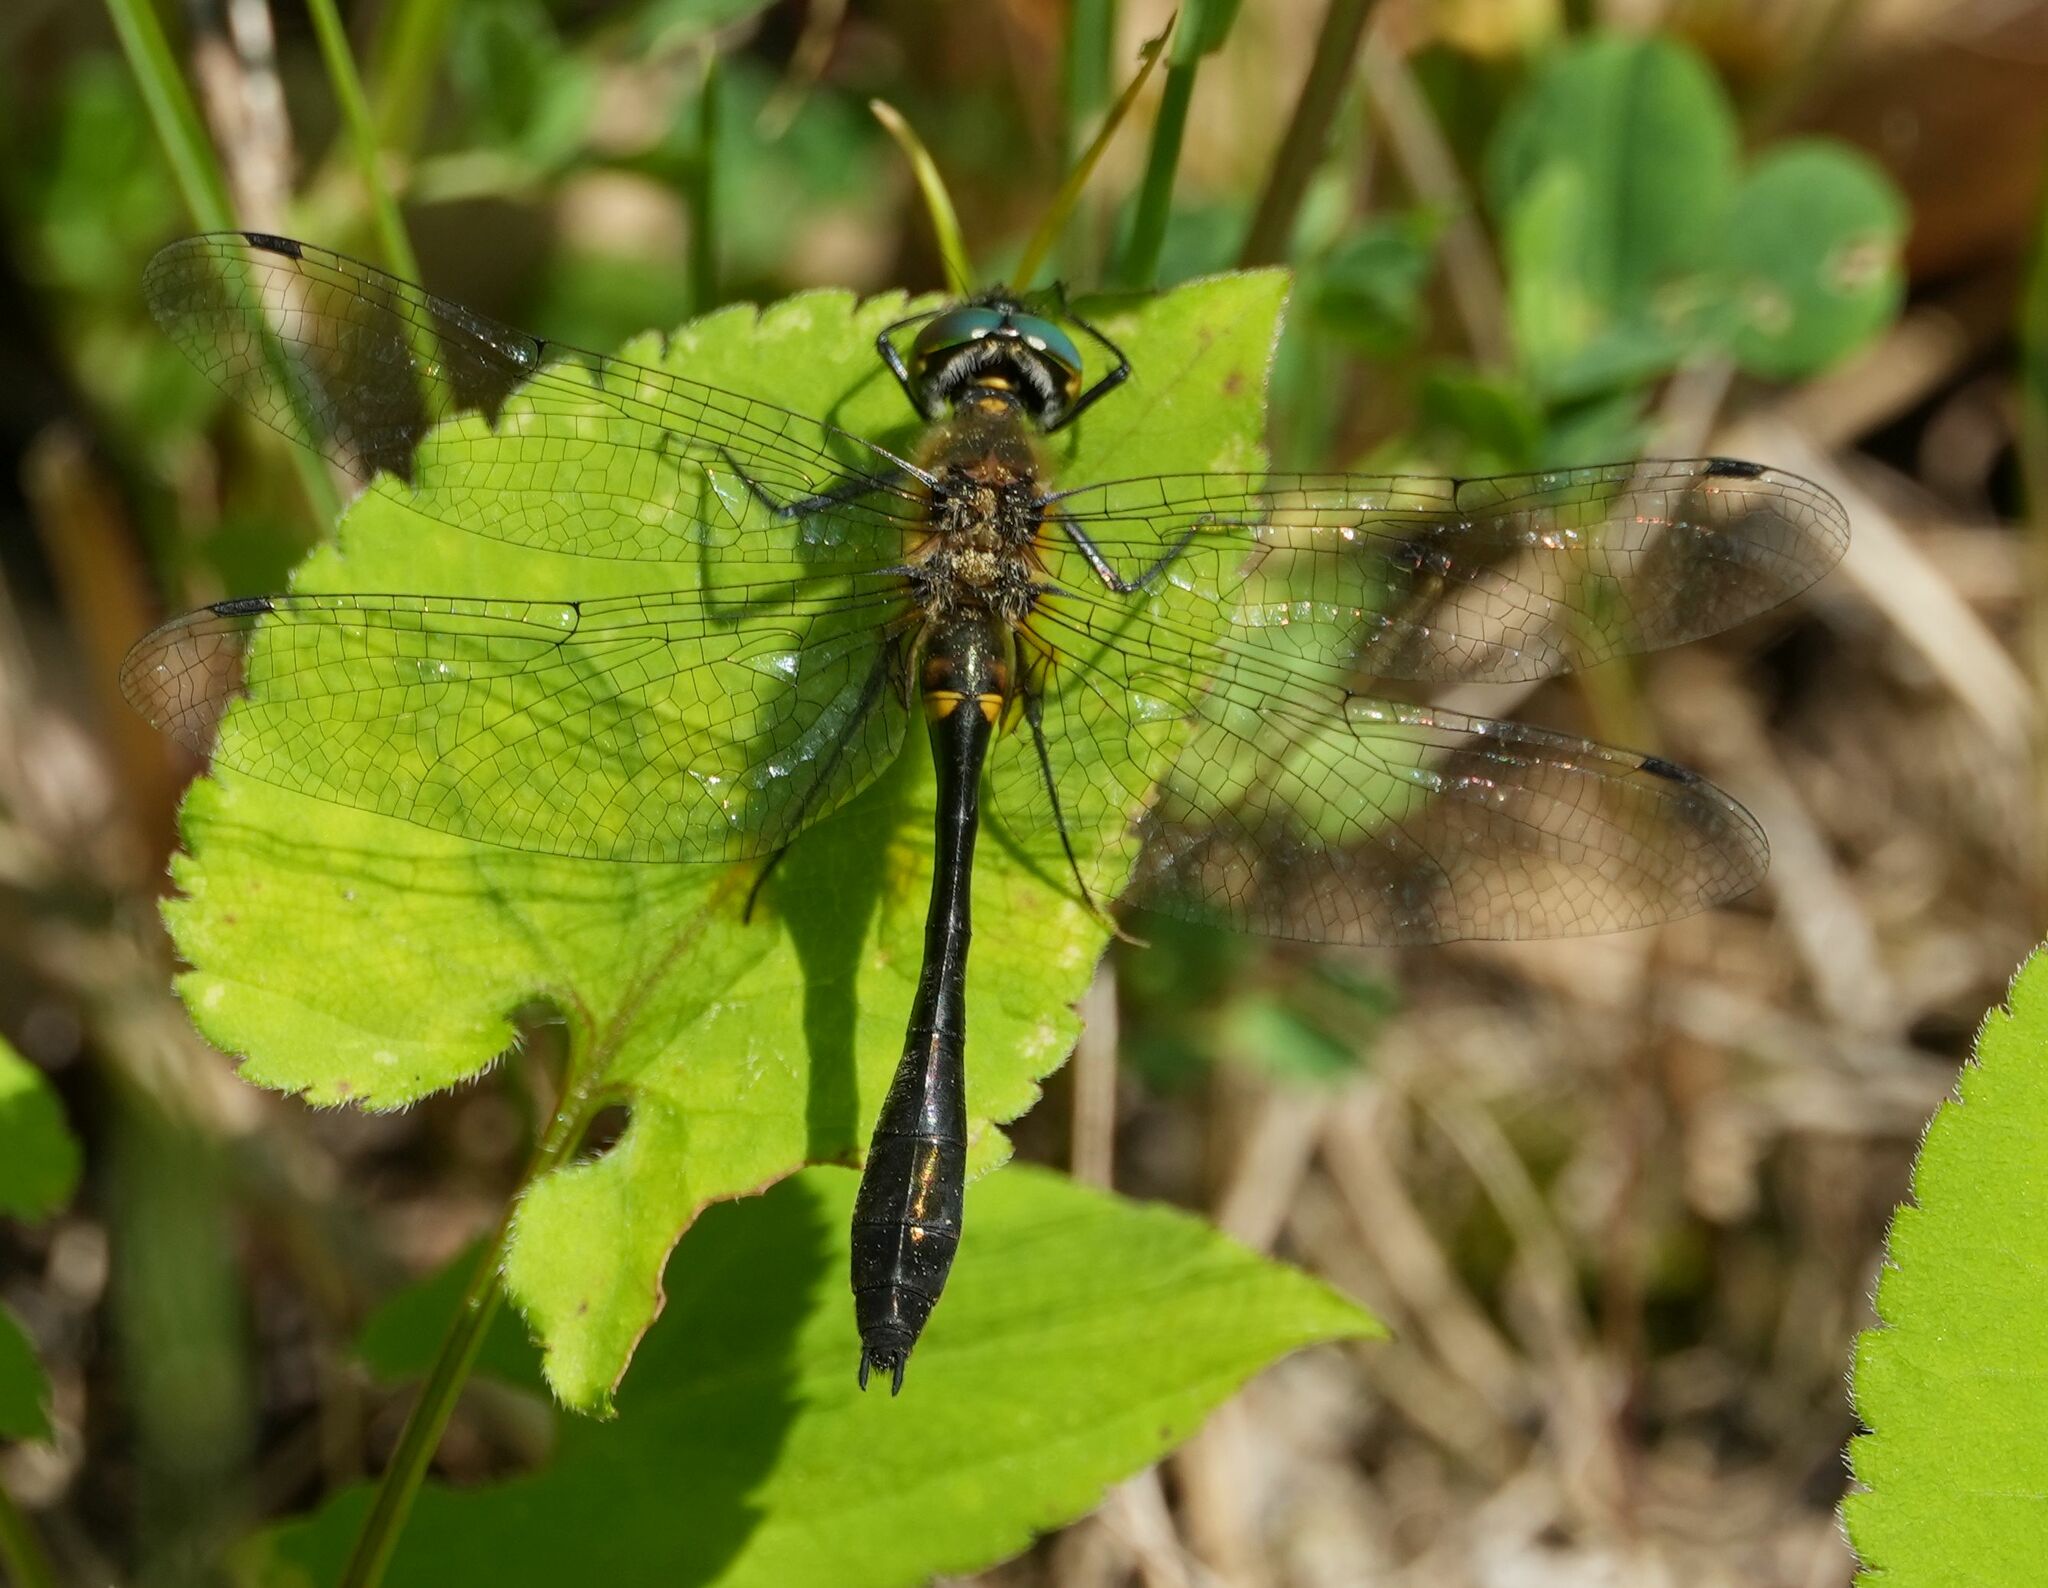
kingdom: Animalia
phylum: Arthropoda
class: Insecta
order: Odonata
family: Corduliidae
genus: Dorocordulia
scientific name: Dorocordulia libera
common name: Racket-tailed emerald
